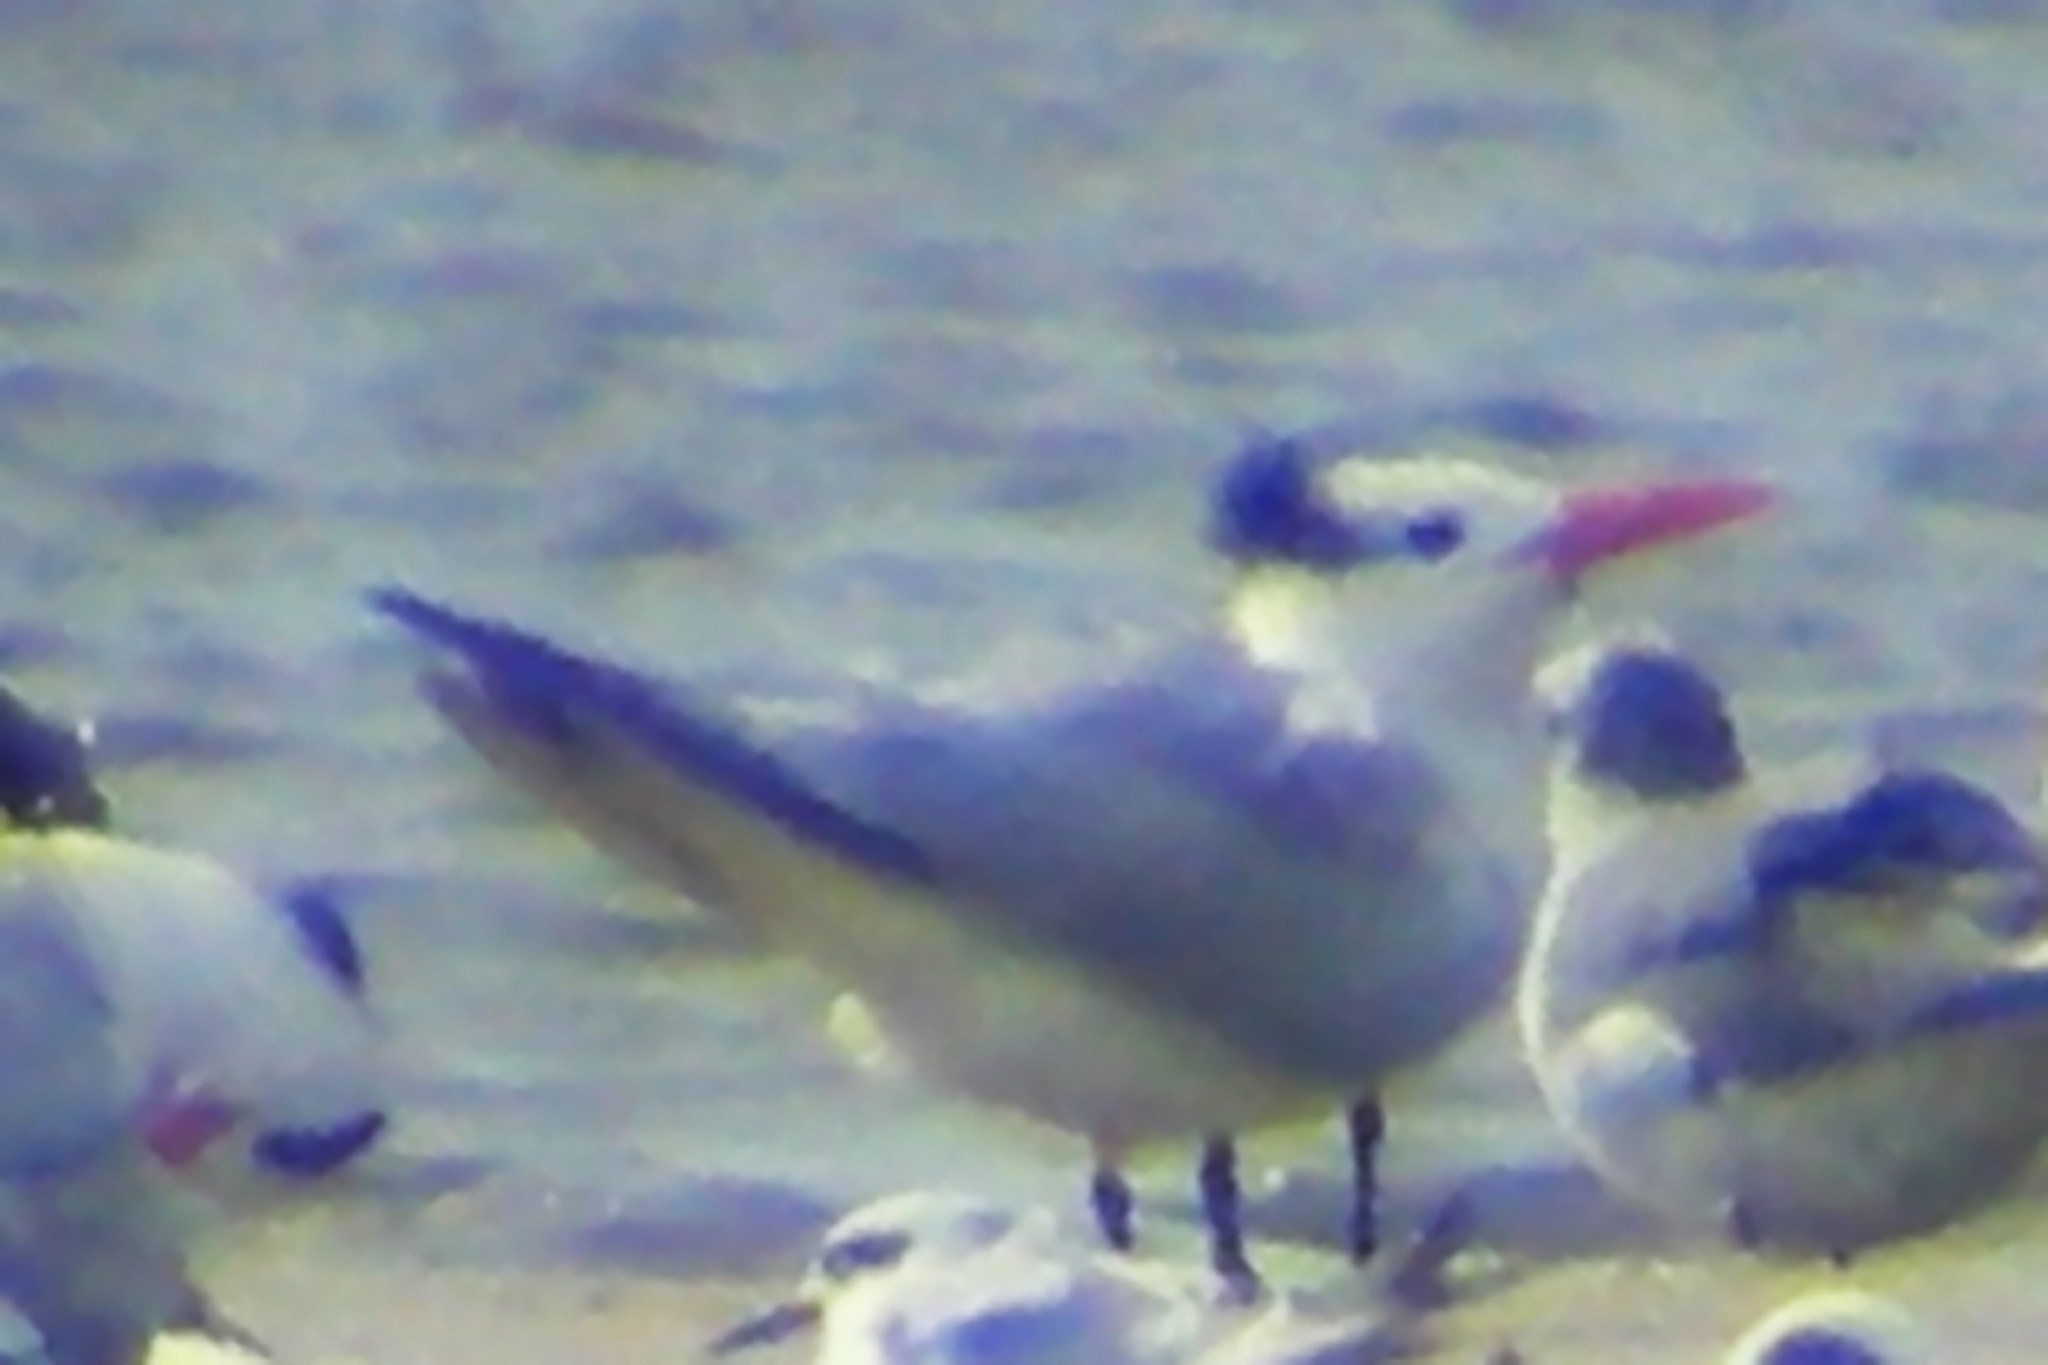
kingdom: Animalia
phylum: Chordata
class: Aves
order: Charadriiformes
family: Laridae
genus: Thalasseus
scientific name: Thalasseus maximus
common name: Royal tern
